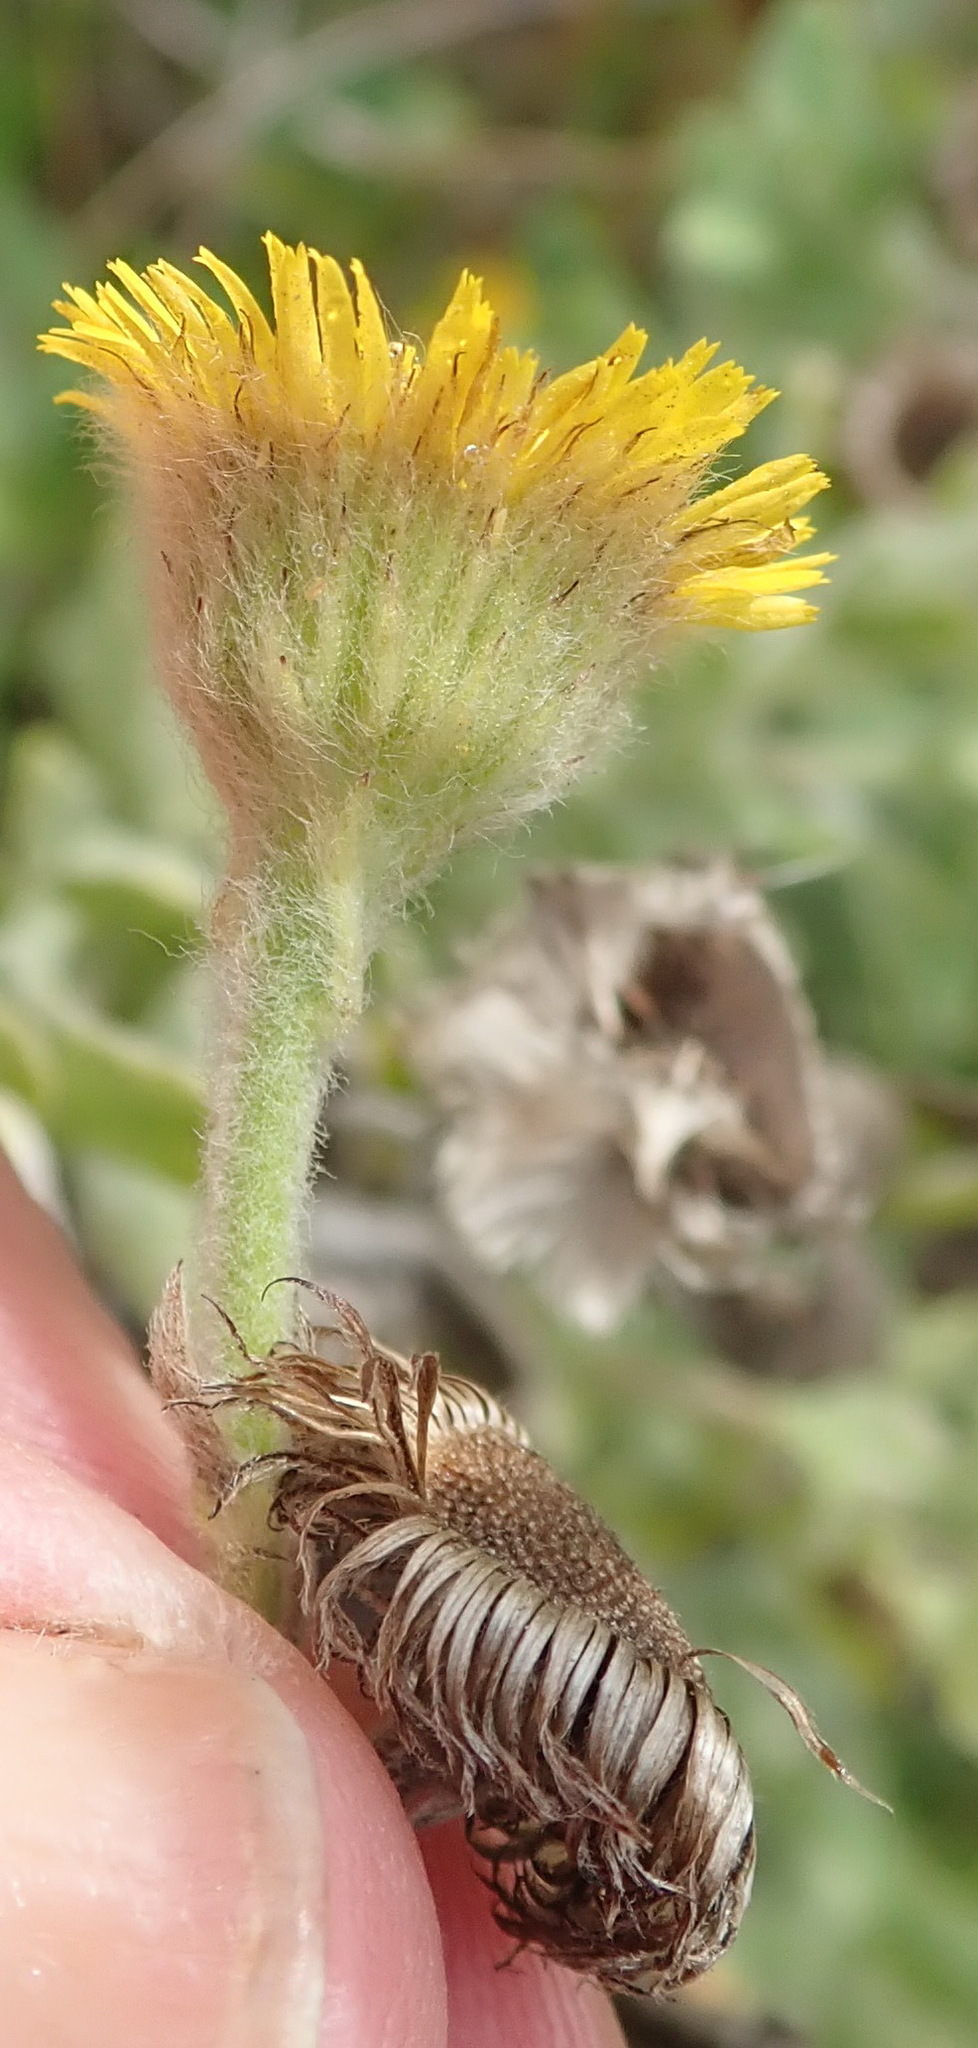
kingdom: Plantae
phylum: Tracheophyta
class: Magnoliopsida
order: Asterales
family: Asteraceae
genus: Pulicaria
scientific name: Pulicaria scabra
